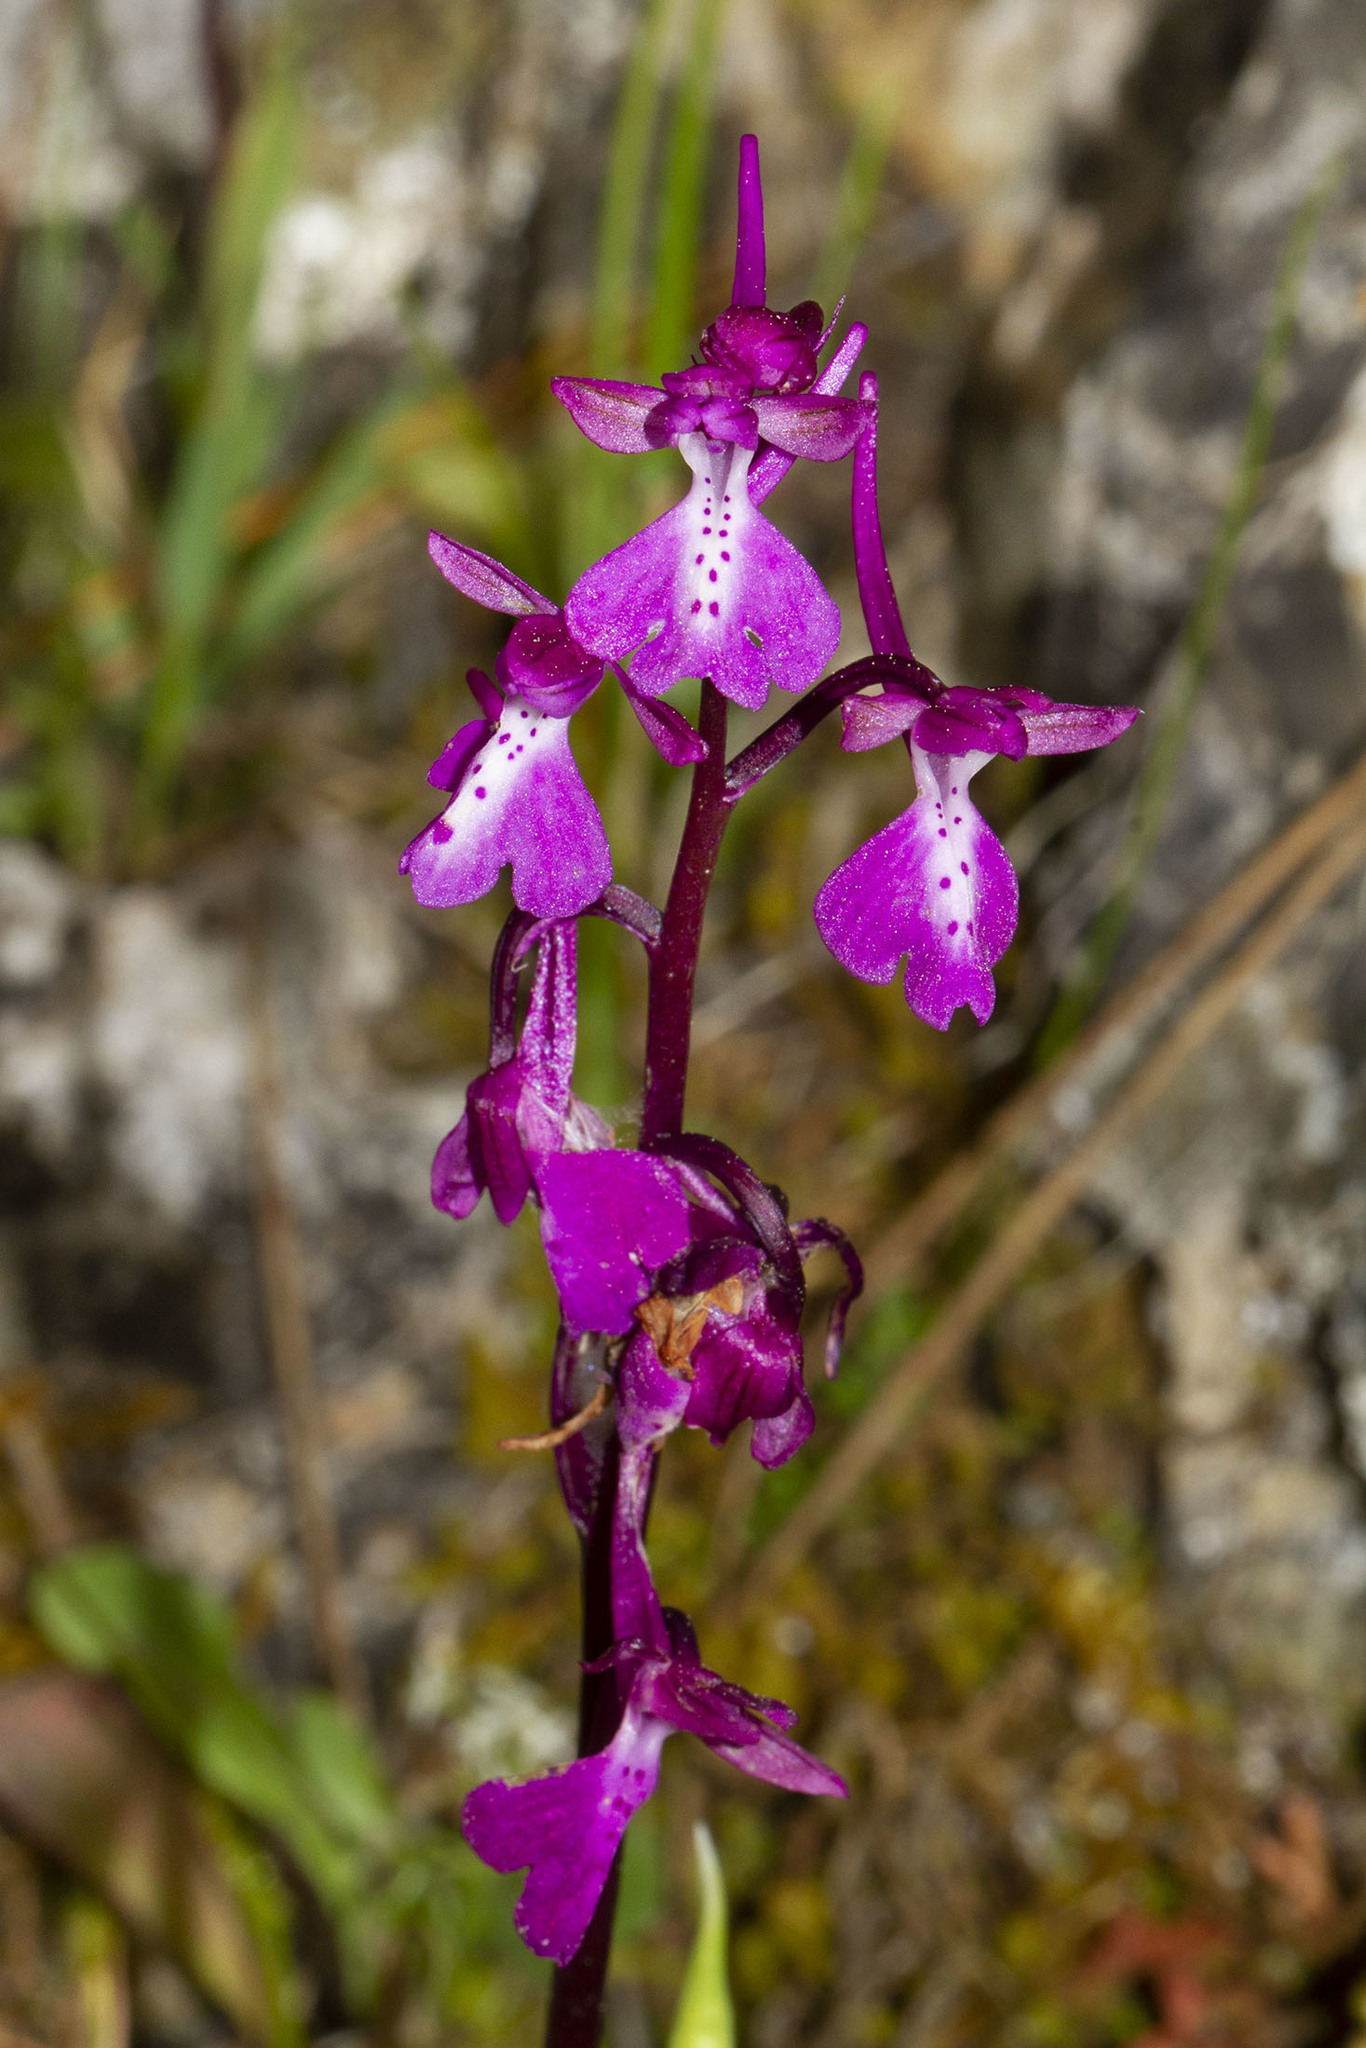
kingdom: Plantae
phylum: Tracheophyta
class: Liliopsida
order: Asparagales
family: Orchidaceae
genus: Orchis
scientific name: Orchis anatolica
